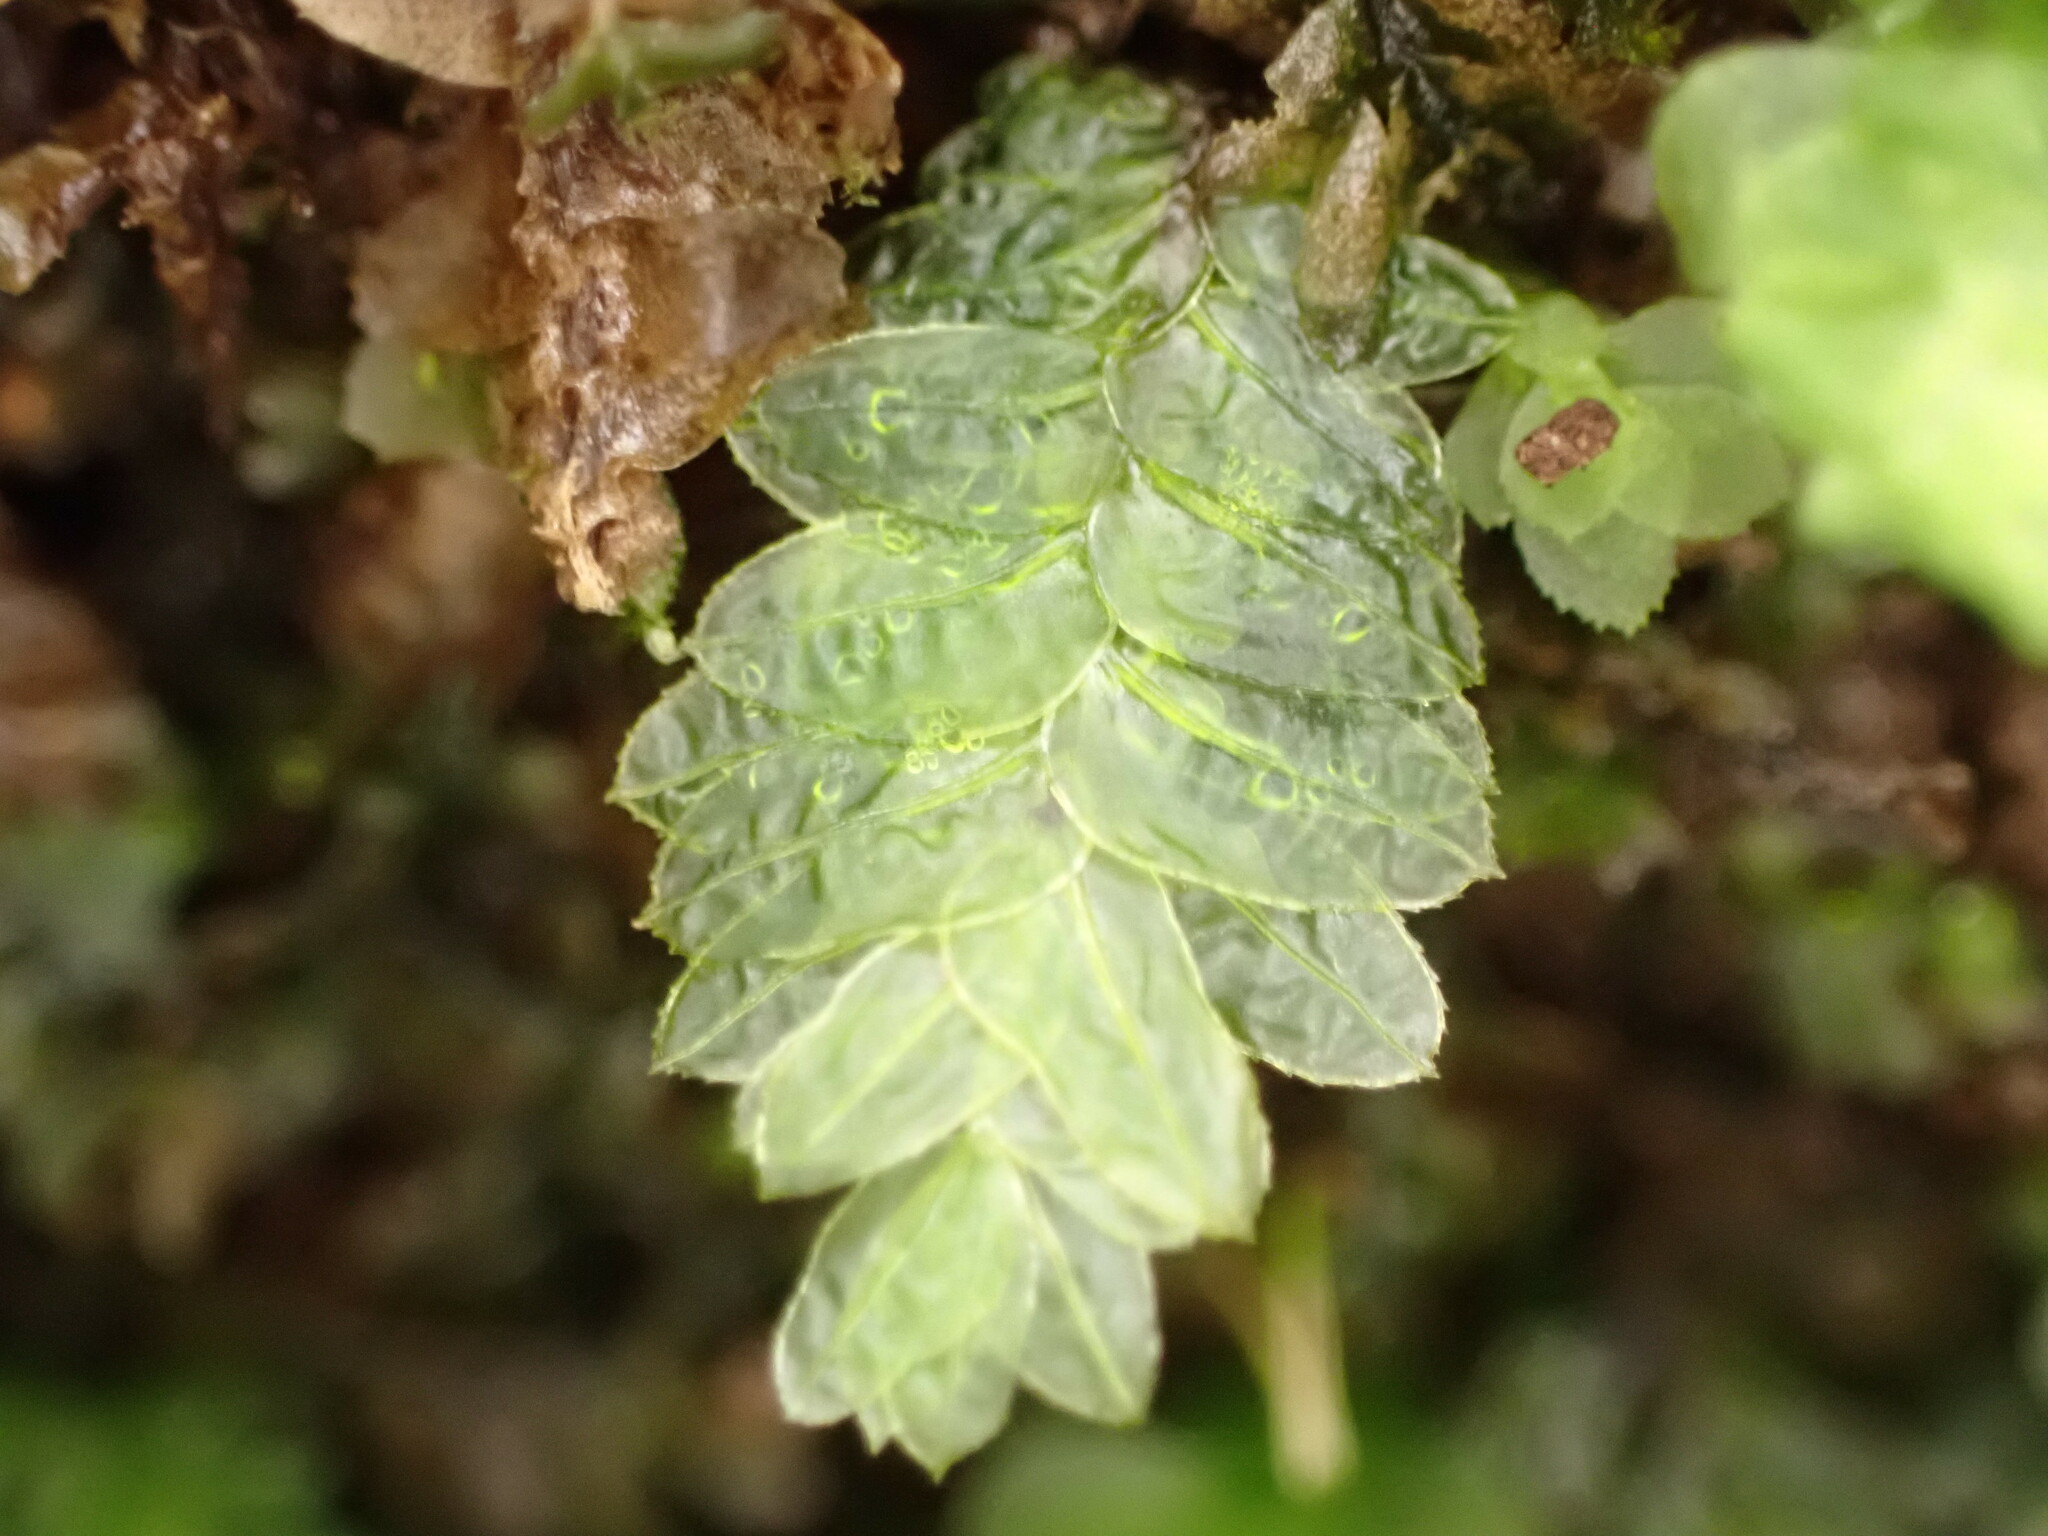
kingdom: Plantae
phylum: Bryophyta
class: Bryopsida
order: Aulacomniales
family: Aulacomniaceae
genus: Mesochaete
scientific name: Mesochaete undulata
